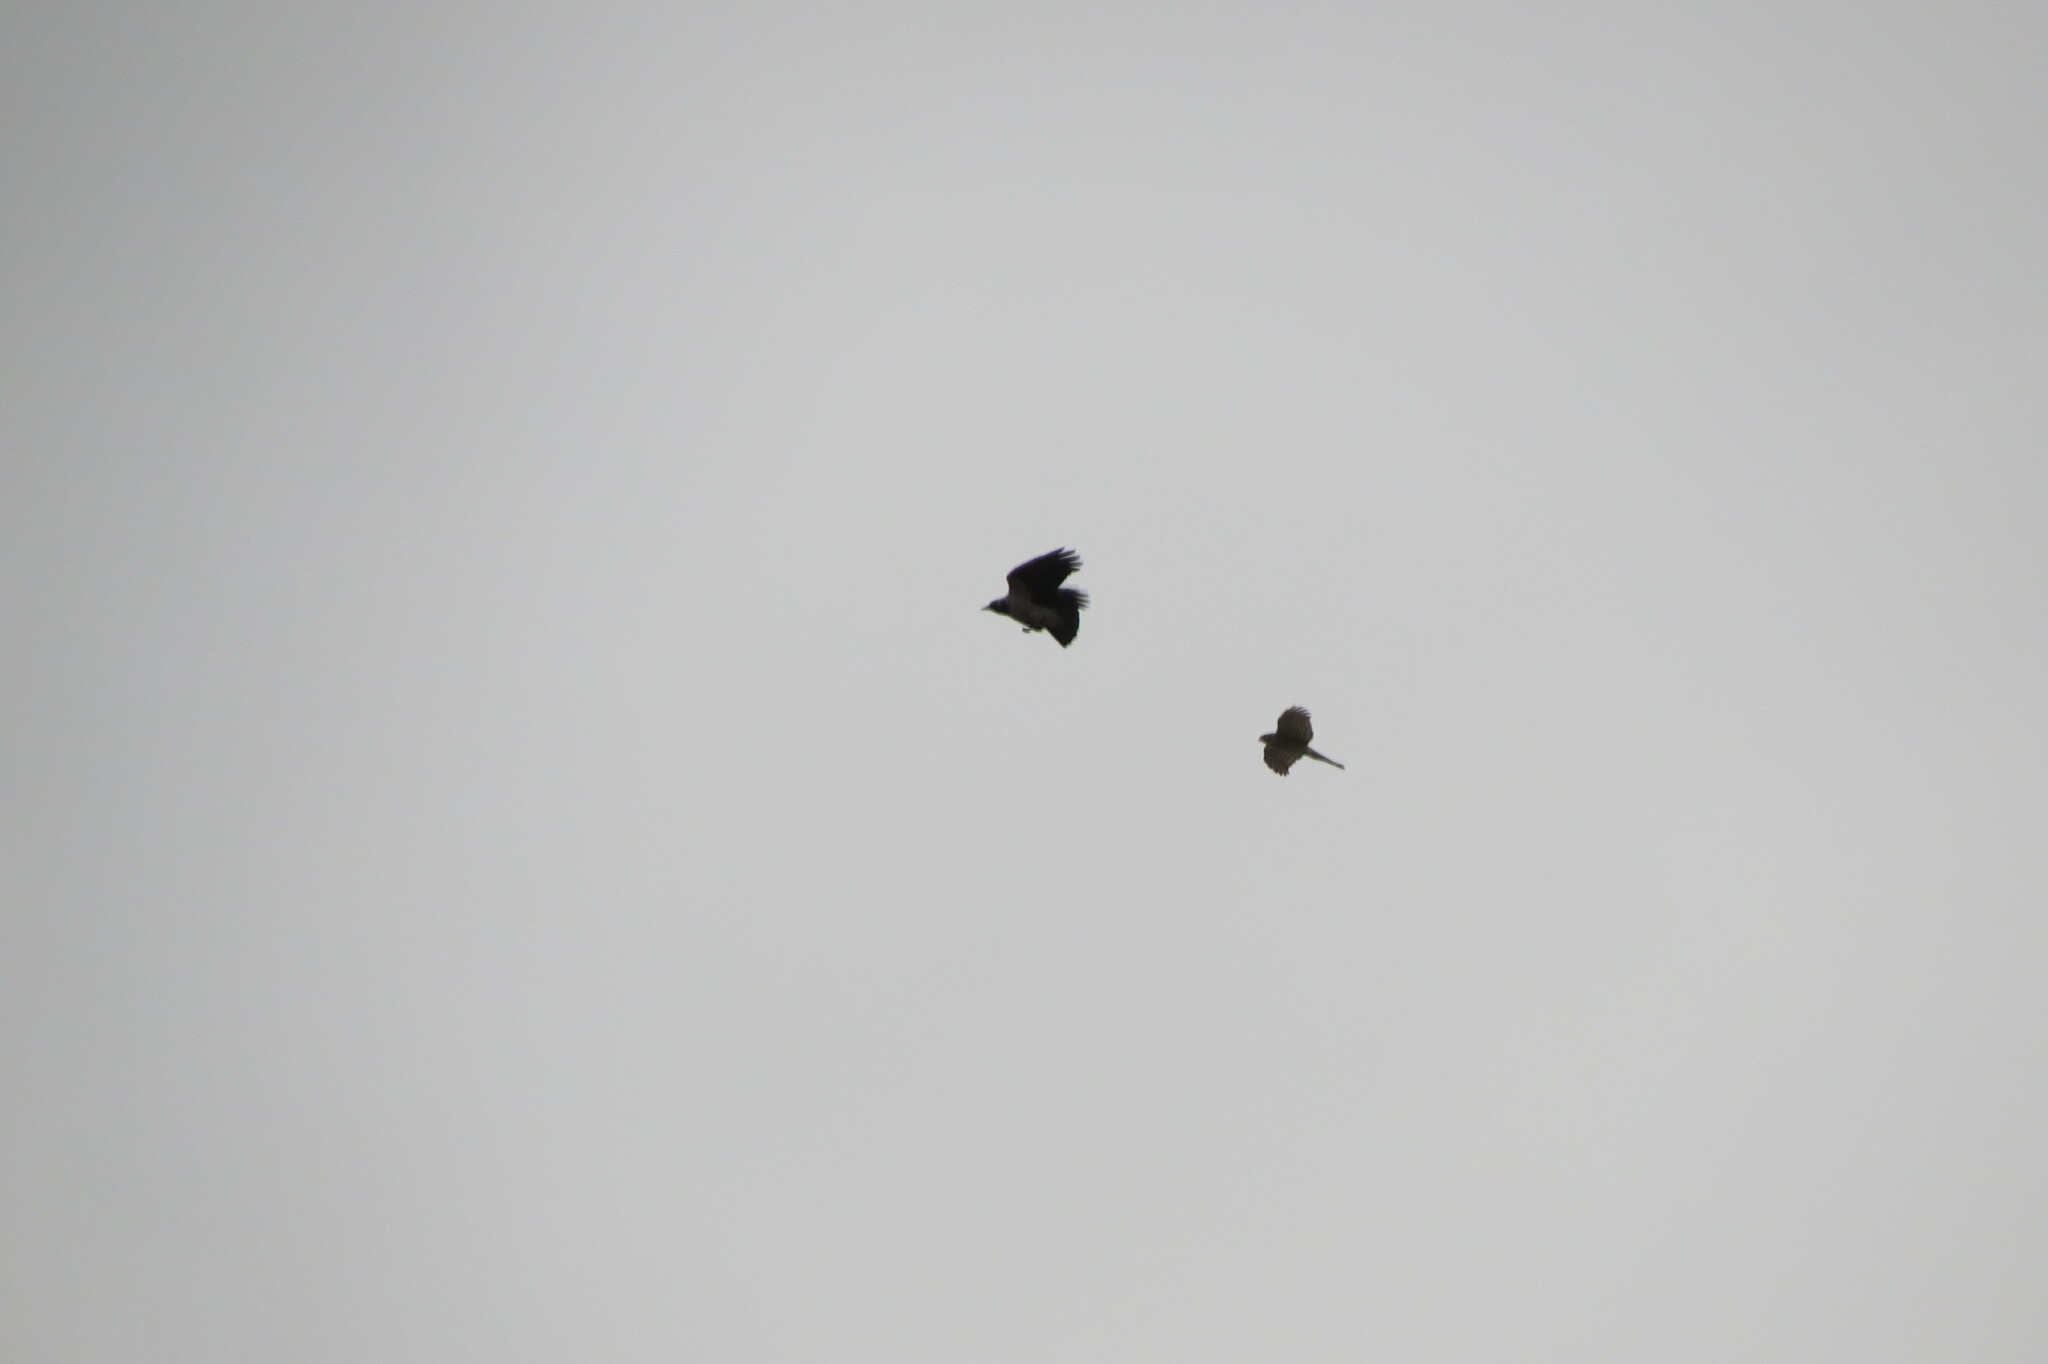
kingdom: Animalia
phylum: Chordata
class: Aves
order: Accipitriformes
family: Accipitridae
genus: Accipiter
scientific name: Accipiter nisus
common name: Eurasian sparrowhawk
